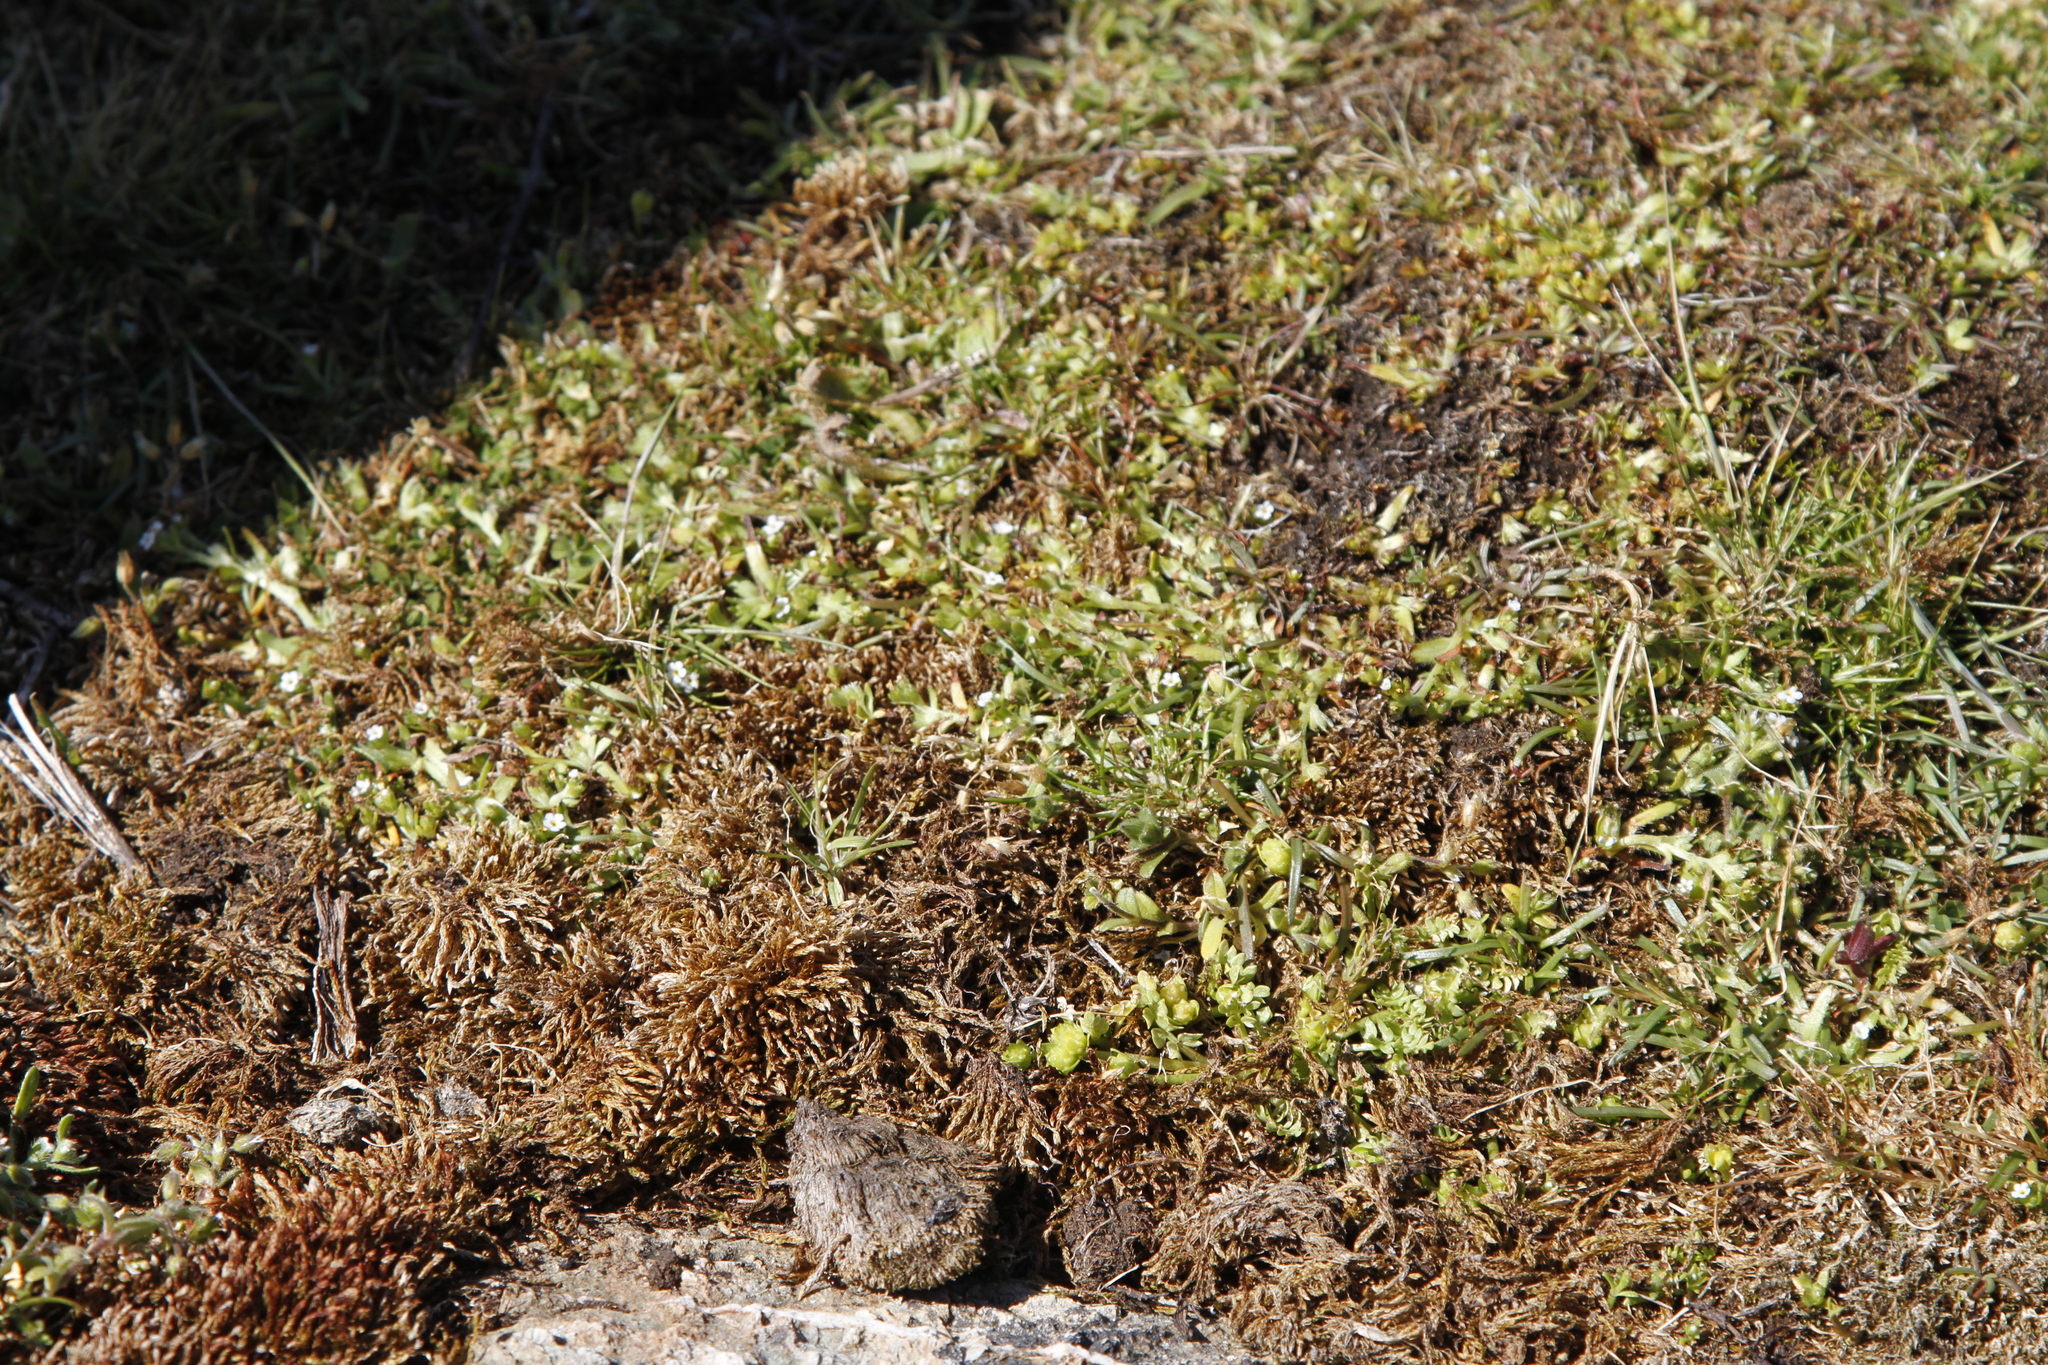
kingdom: Plantae
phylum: Tracheophyta
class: Magnoliopsida
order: Brassicales
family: Limnanthaceae
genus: Limnanthes
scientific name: Limnanthes macounii
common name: Macoun's meadowfoam
